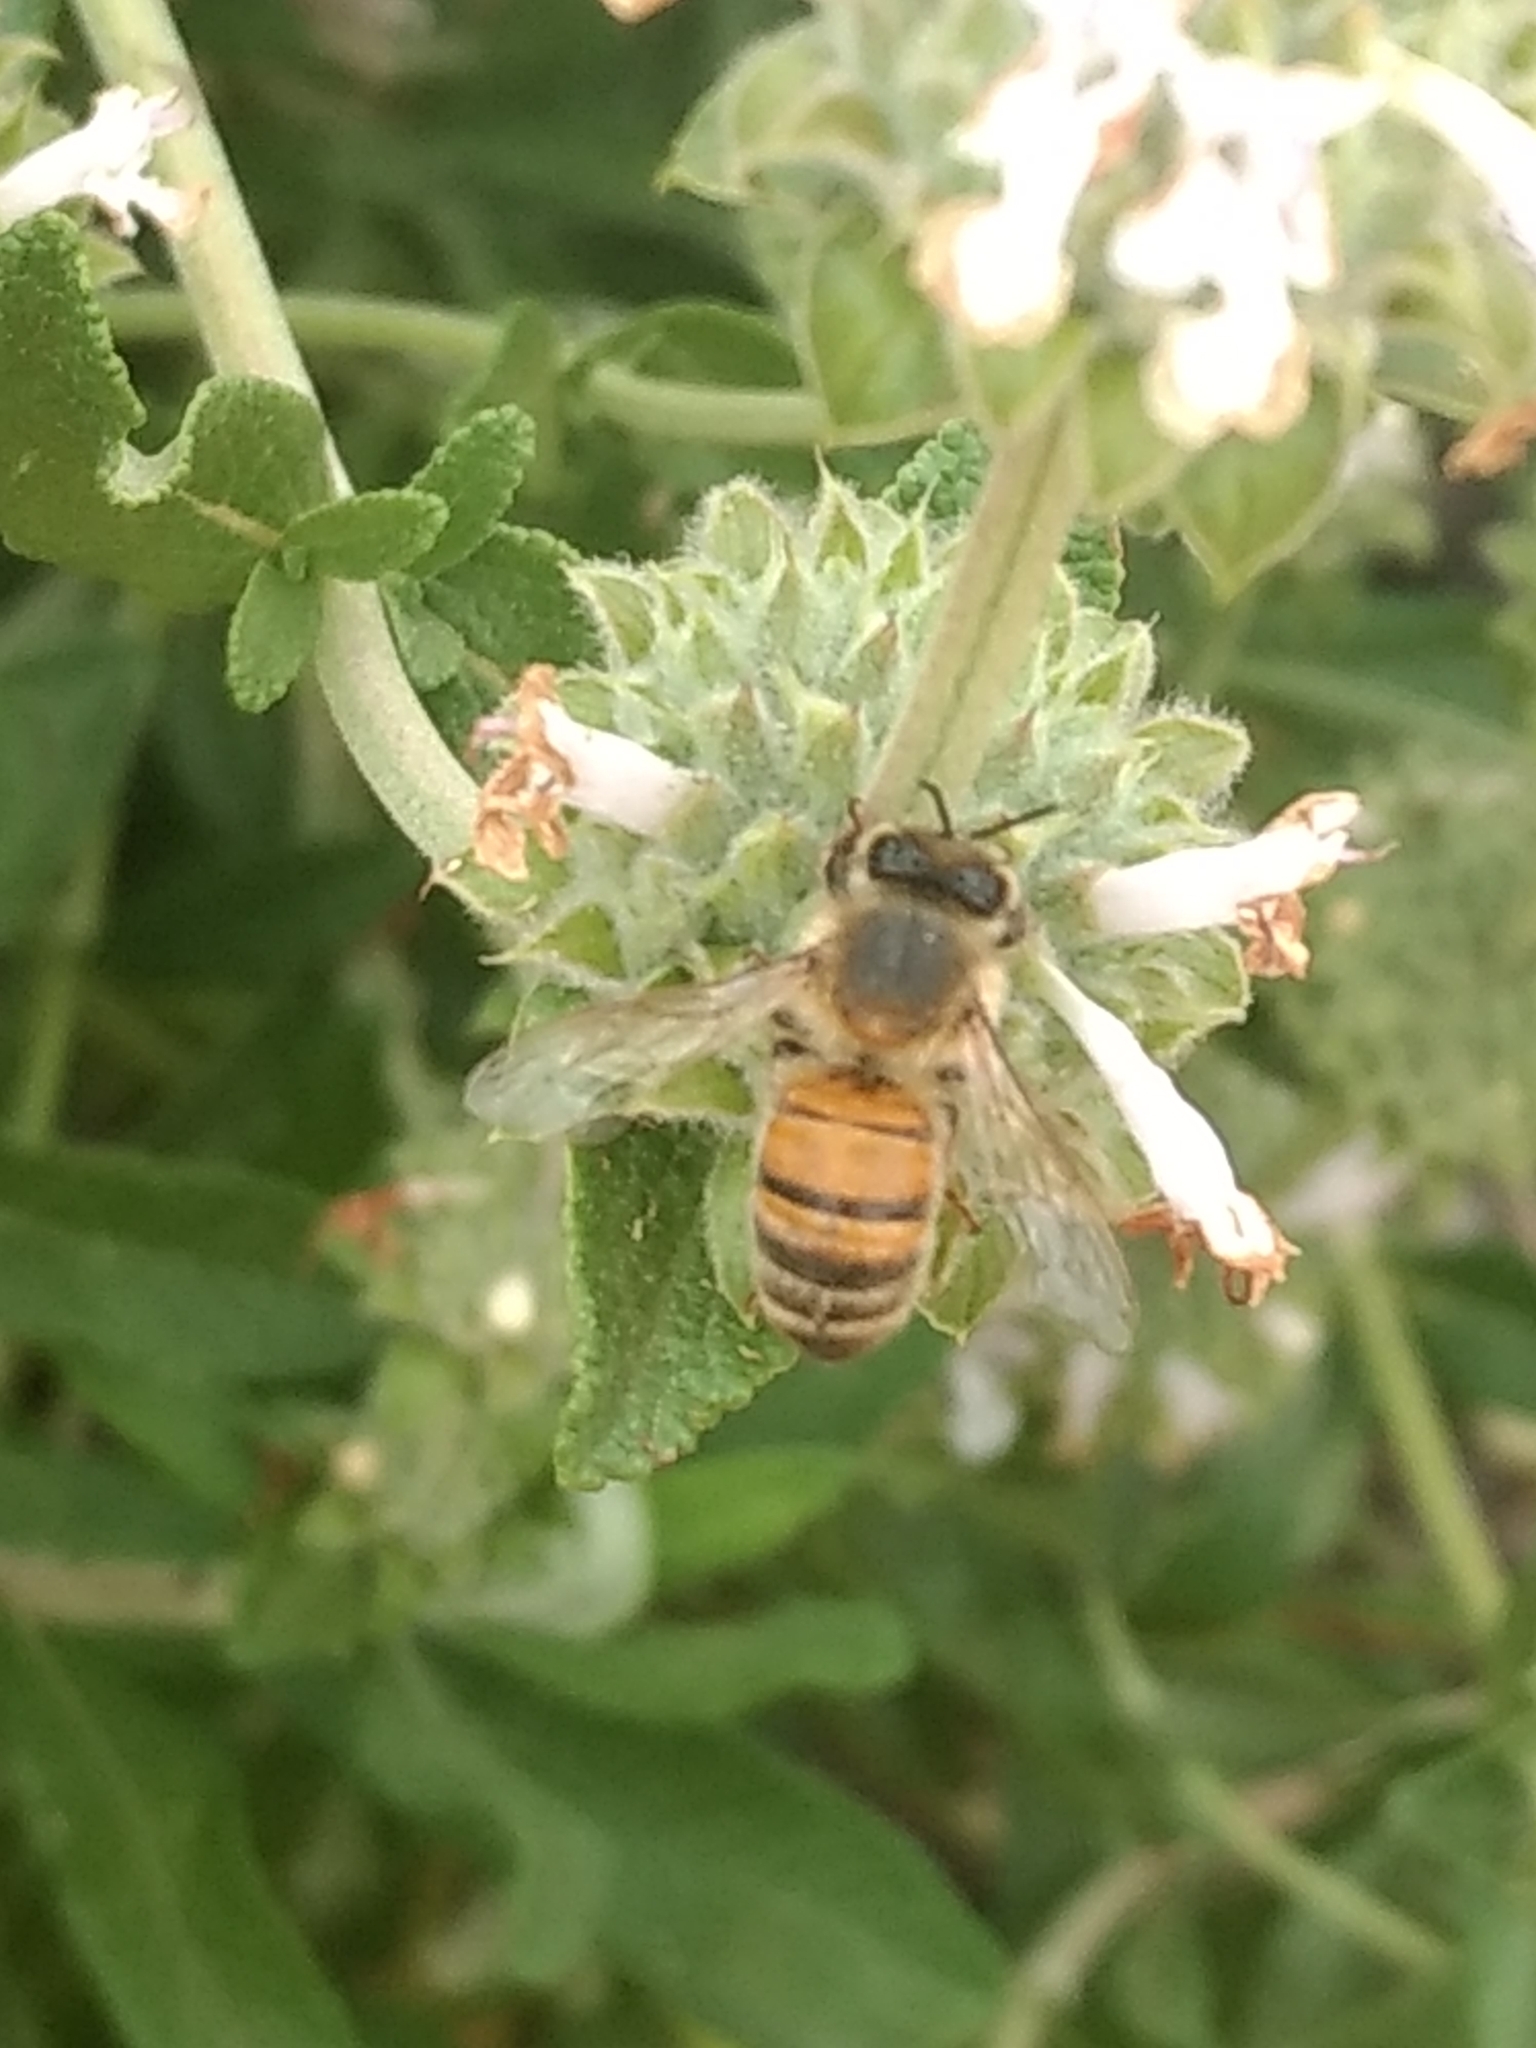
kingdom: Animalia
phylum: Arthropoda
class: Insecta
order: Hymenoptera
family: Apidae
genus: Apis
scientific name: Apis mellifera
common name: Honey bee
